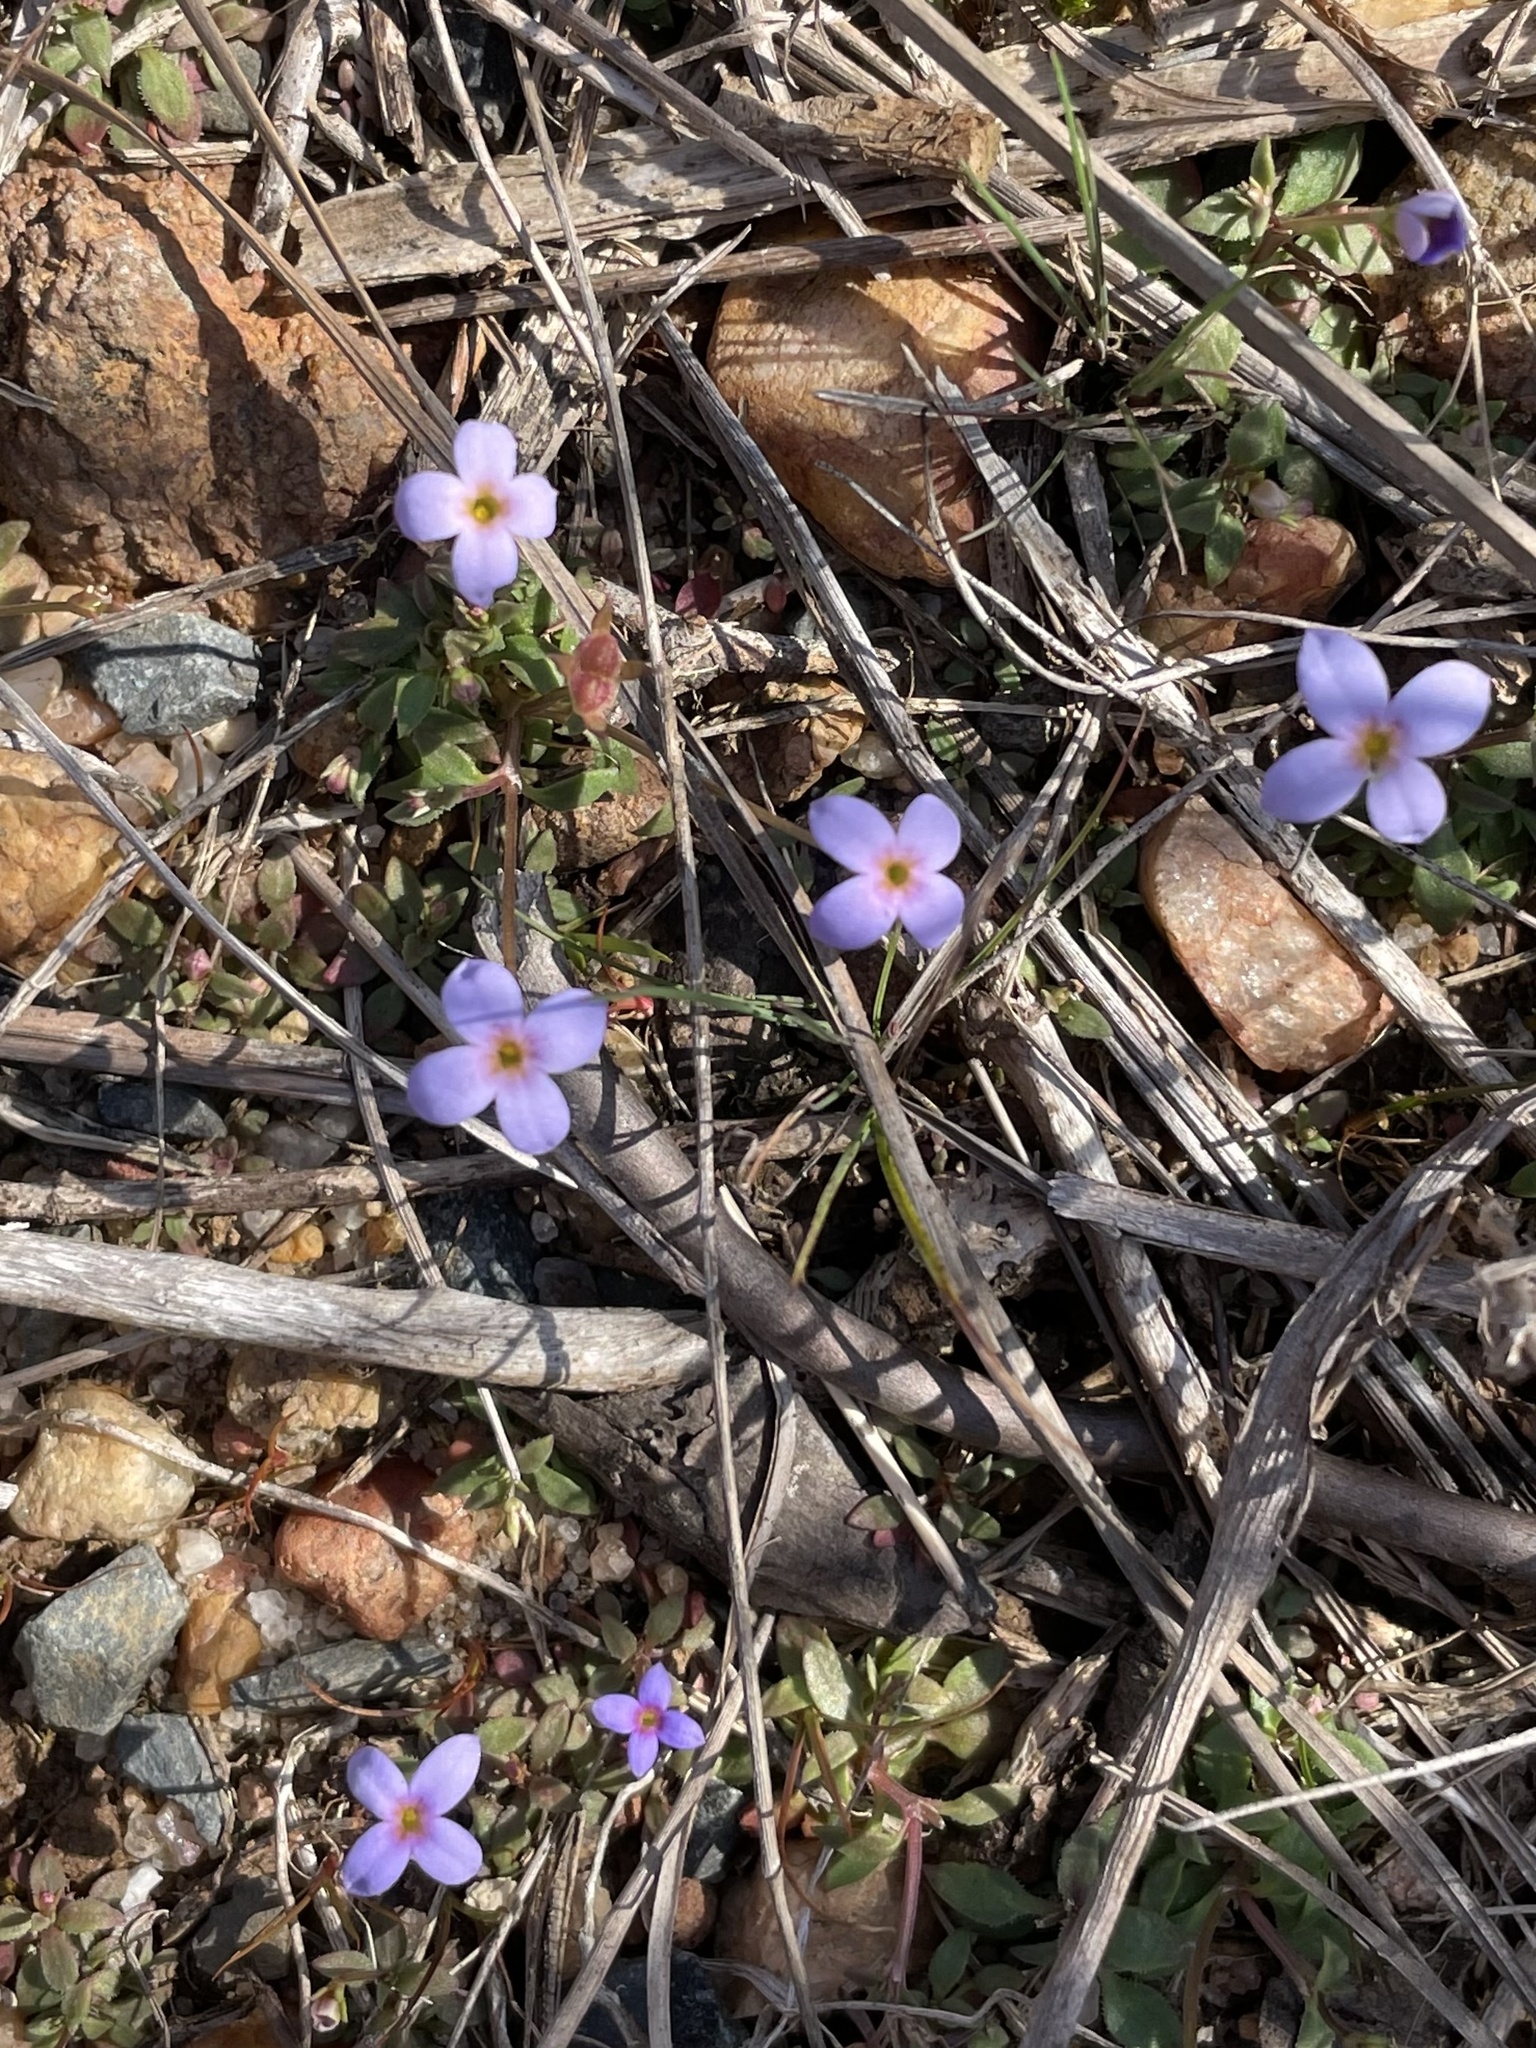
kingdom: Plantae
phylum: Tracheophyta
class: Magnoliopsida
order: Gentianales
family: Rubiaceae
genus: Houstonia
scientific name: Houstonia pusilla
